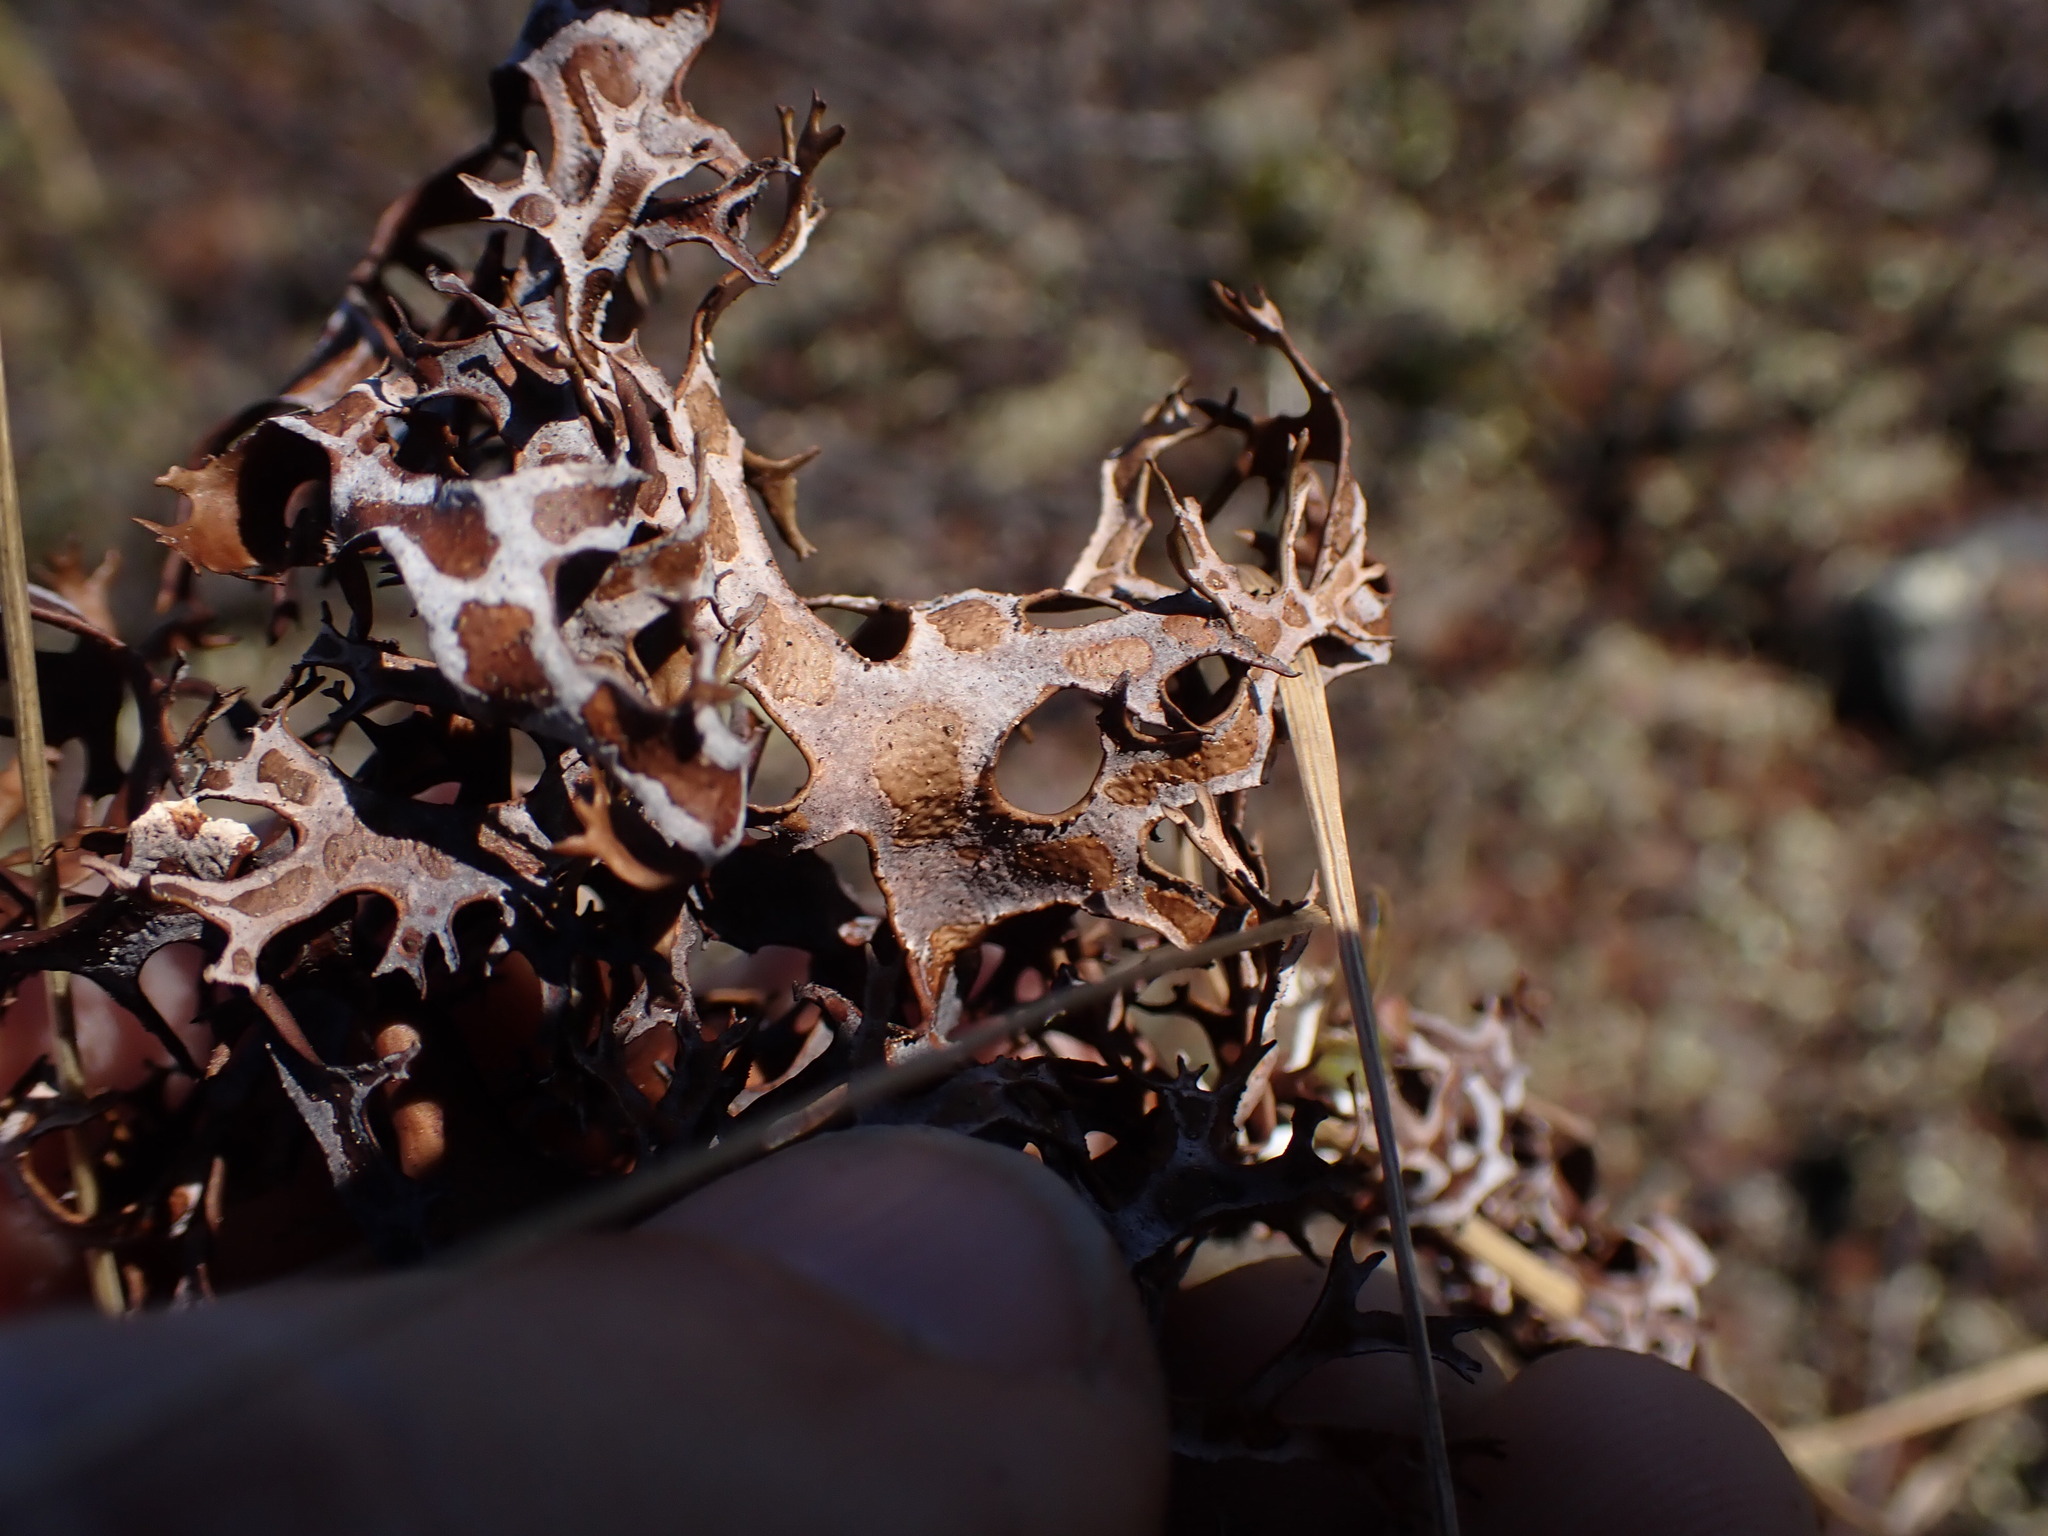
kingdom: Fungi
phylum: Ascomycota
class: Lecanoromycetes
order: Lecanorales
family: Parmeliaceae
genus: Nephromopsis
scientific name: Nephromopsis richardsonii
